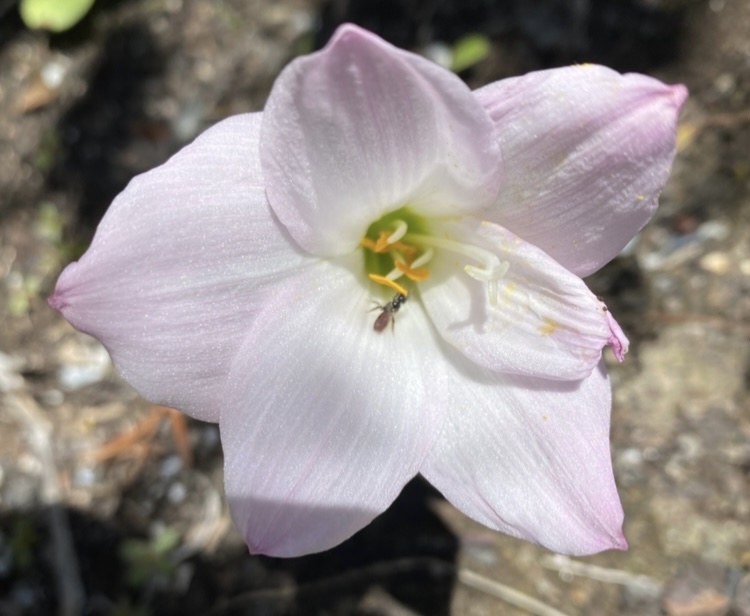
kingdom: Plantae
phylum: Tracheophyta
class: Liliopsida
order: Asparagales
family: Amaryllidaceae
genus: Zephyranthes
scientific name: Zephyranthes robusta
